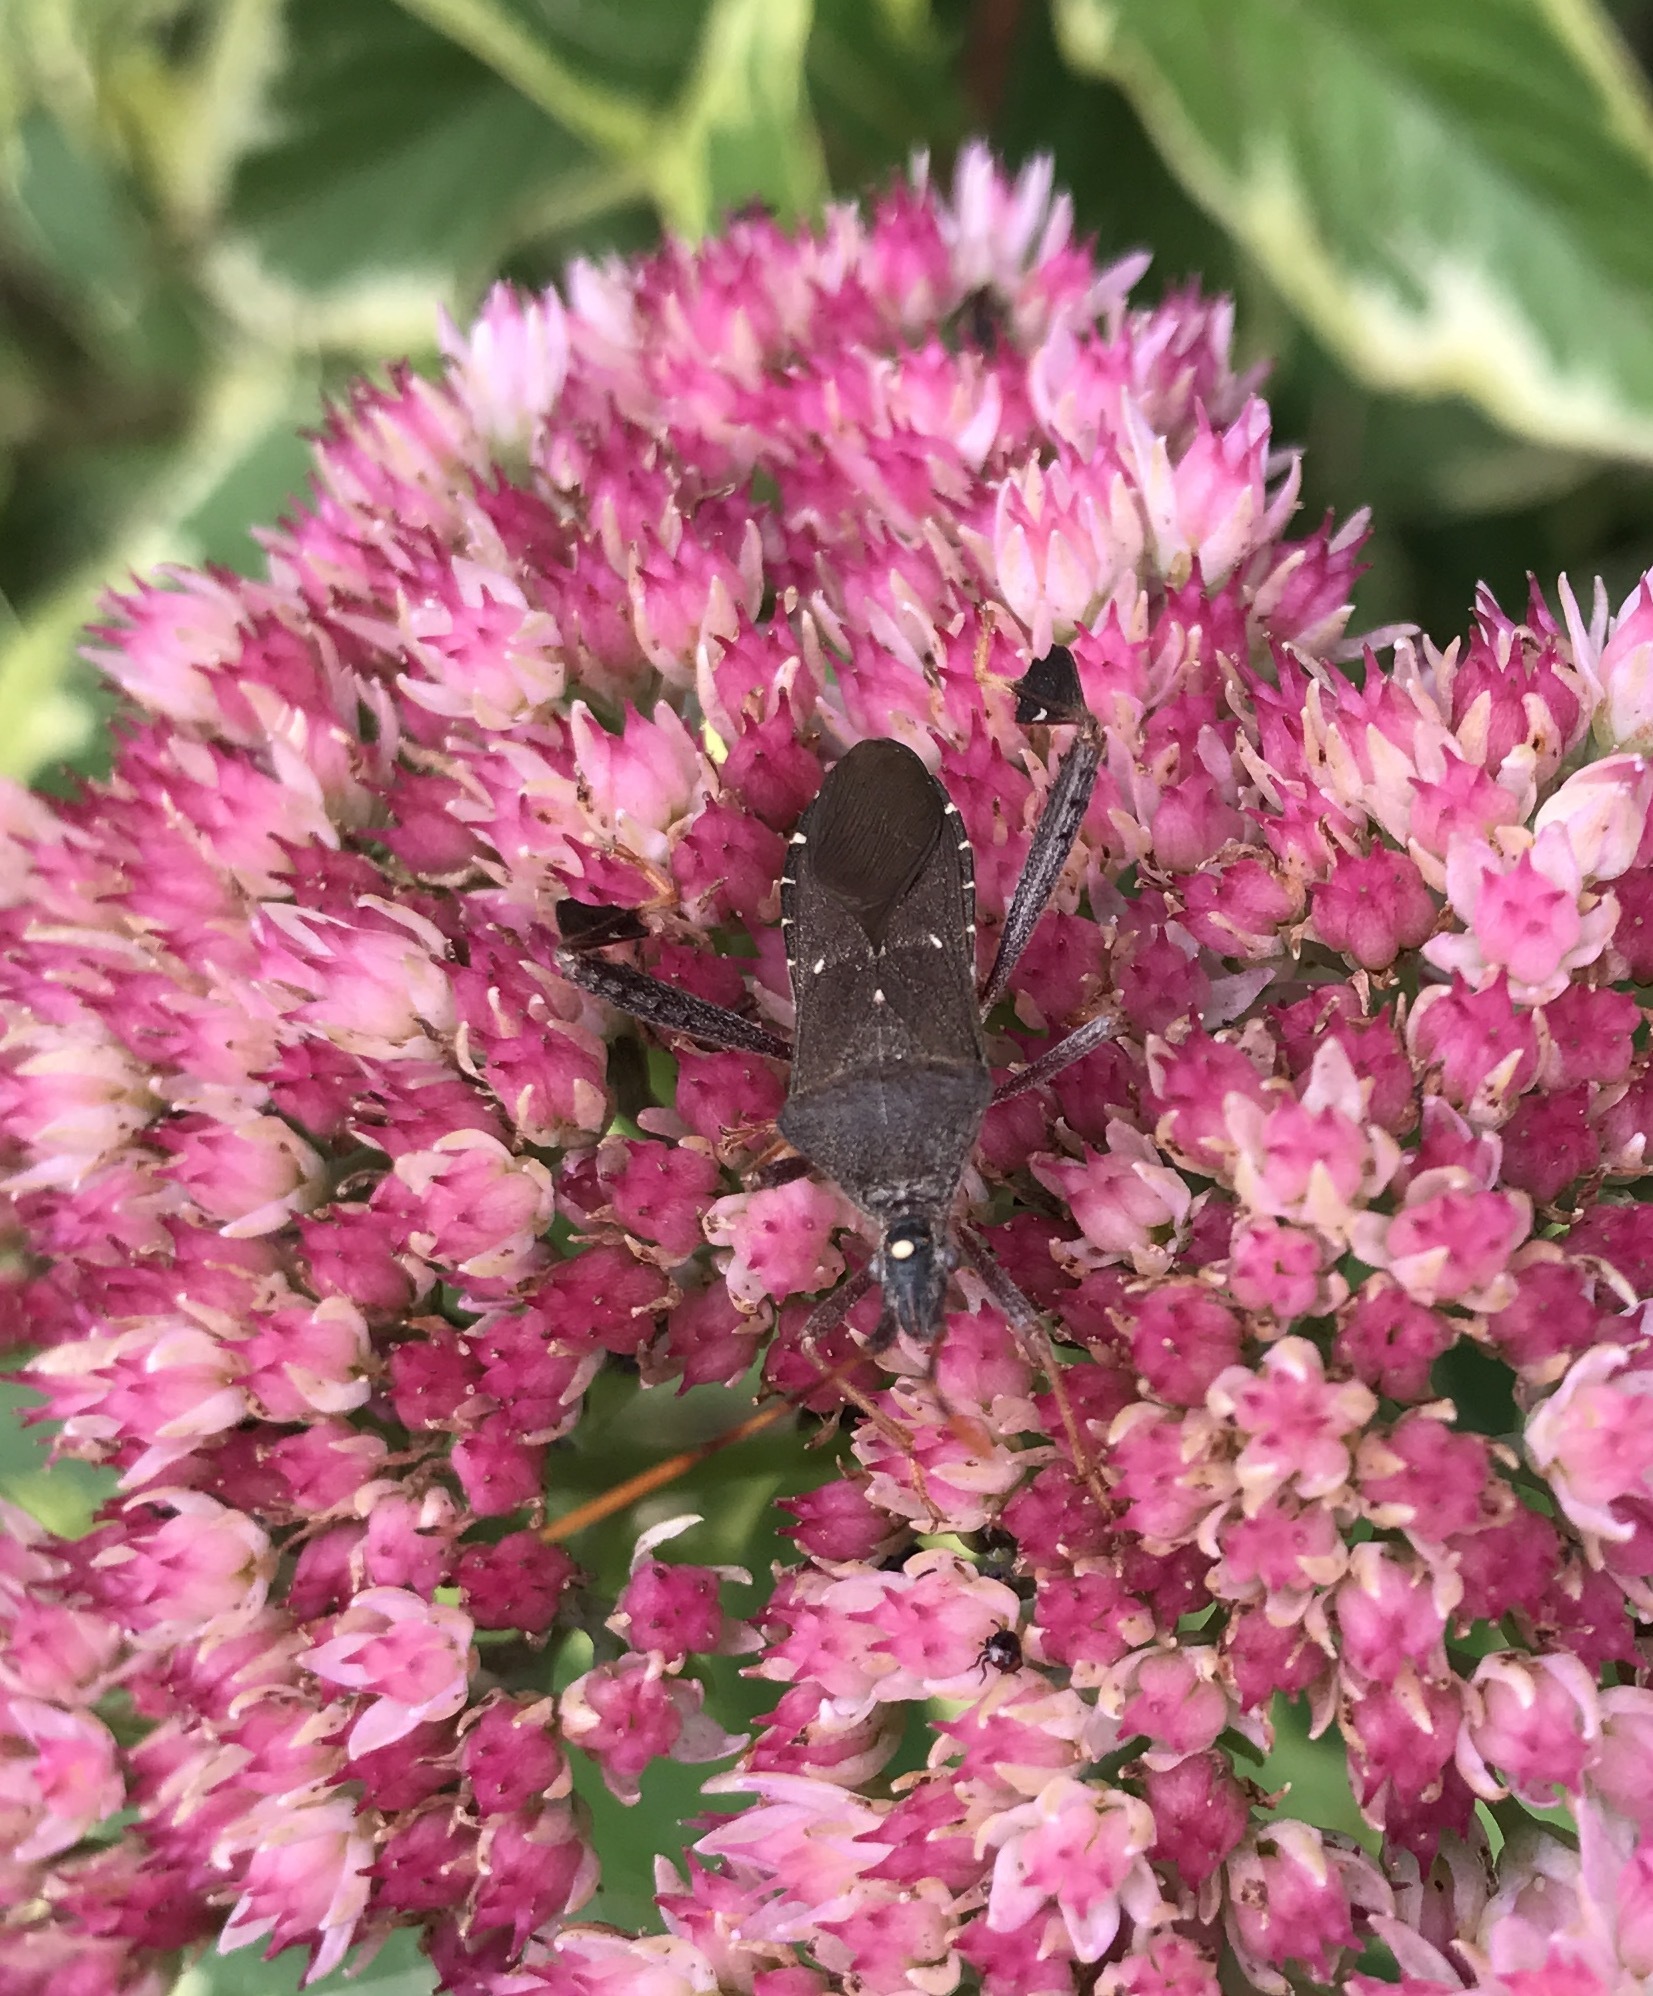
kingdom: Animalia
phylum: Arthropoda
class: Insecta
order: Hemiptera
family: Coreidae
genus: Leptoglossus
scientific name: Leptoglossus oppositus
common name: Northern leaf-footed bug
